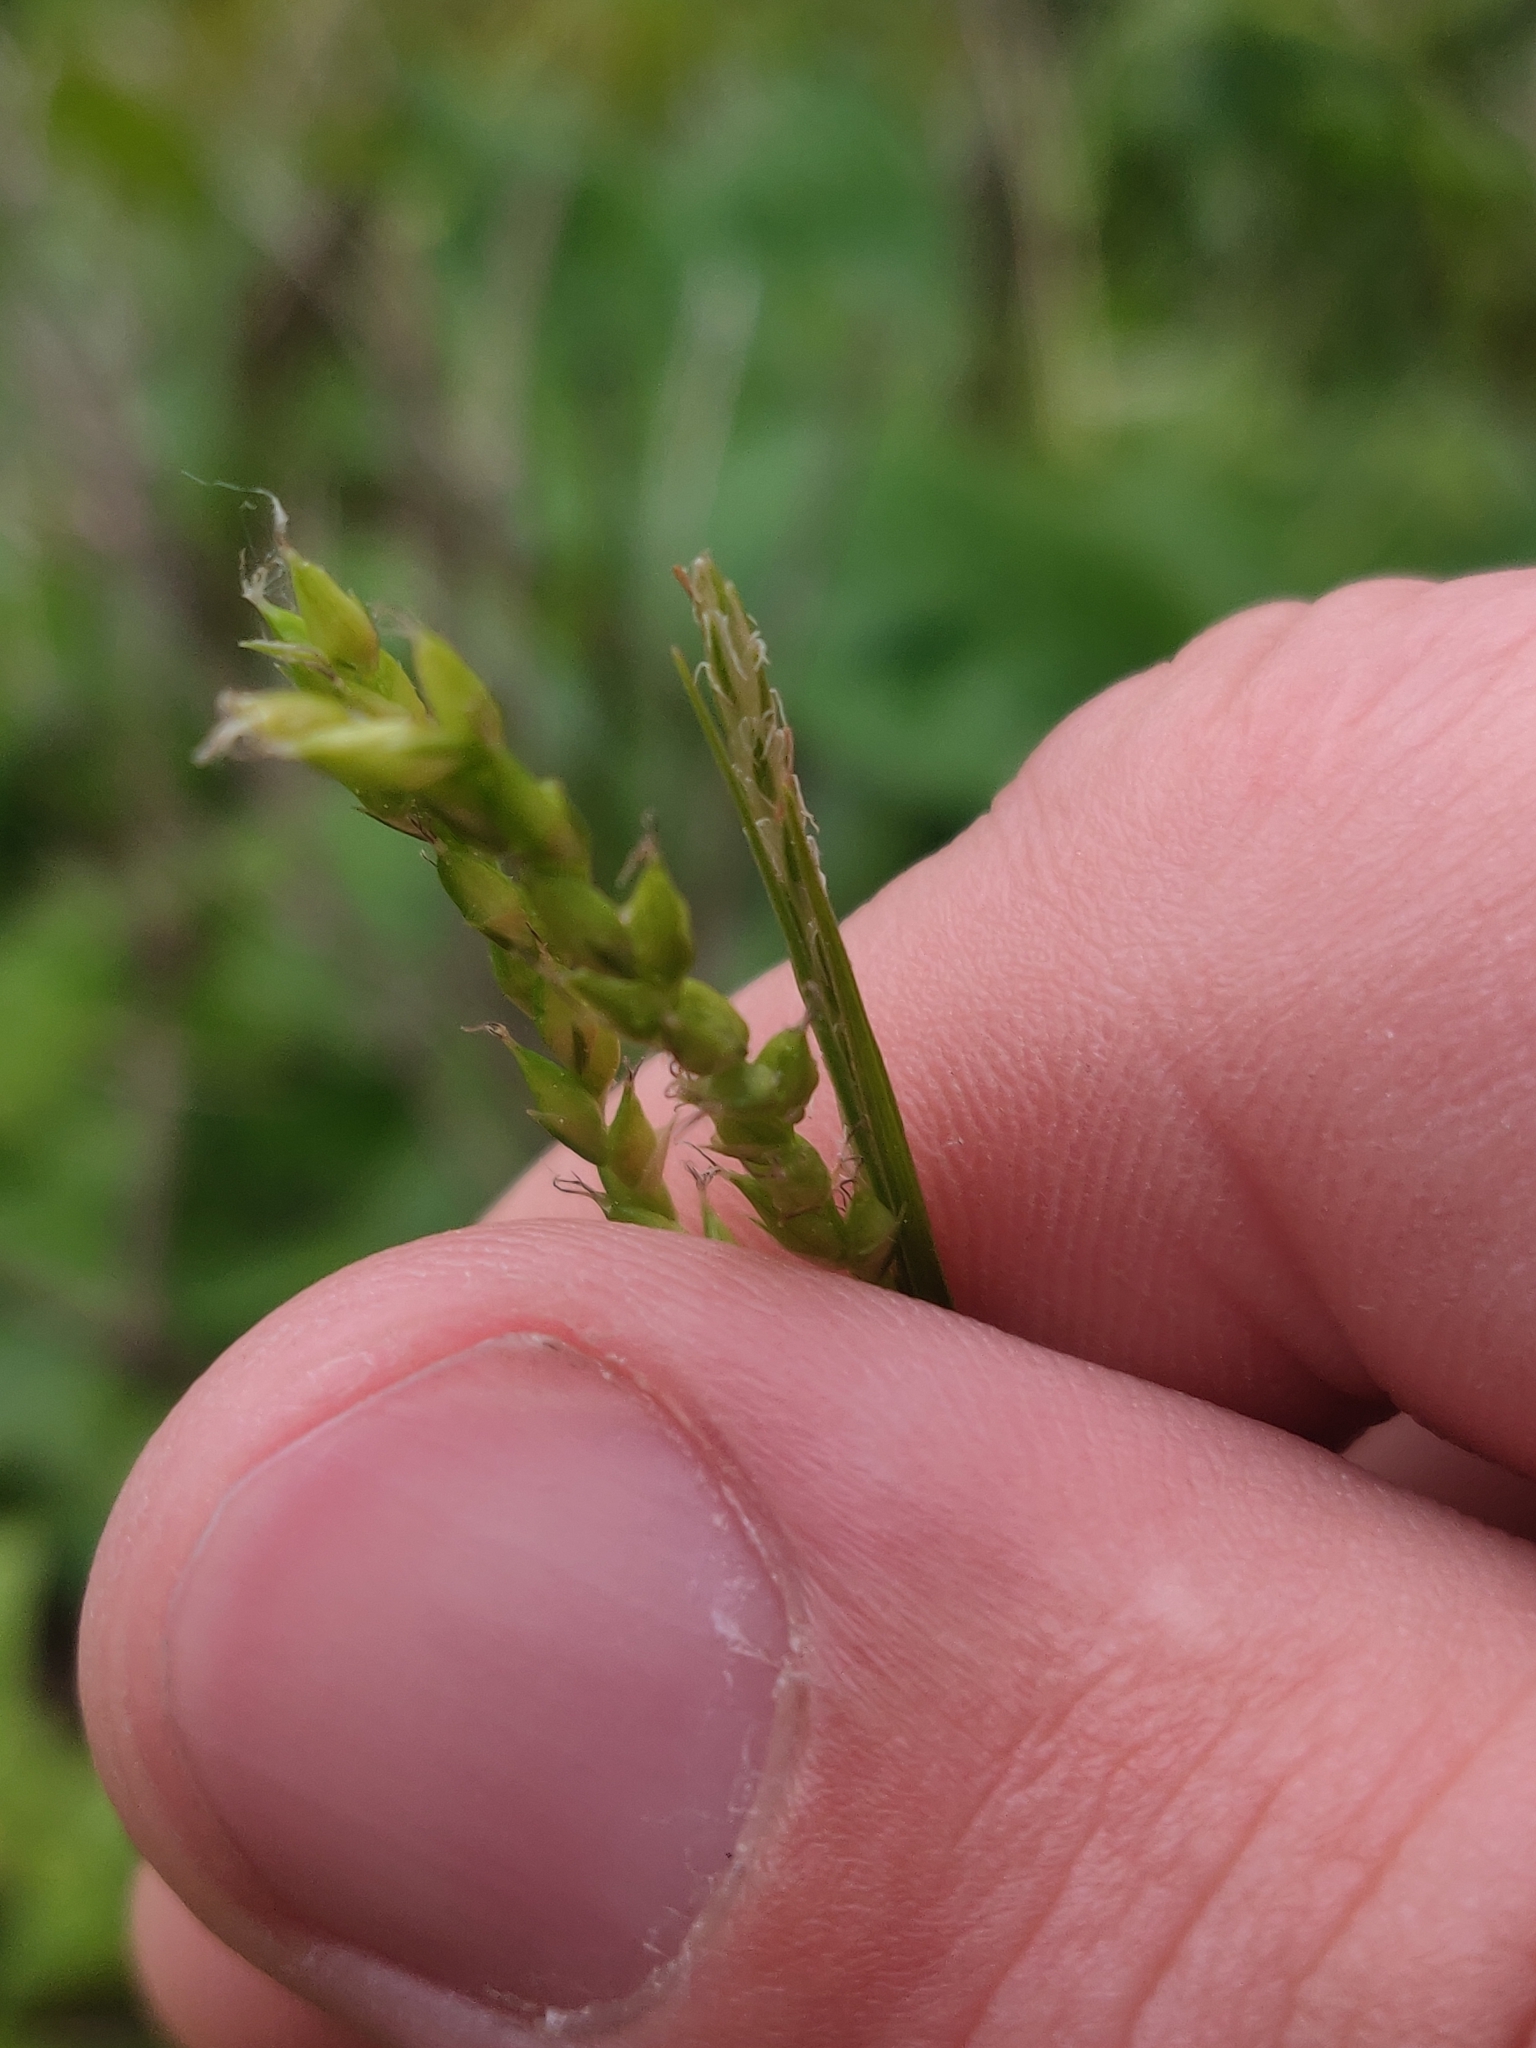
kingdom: Plantae
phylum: Tracheophyta
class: Liliopsida
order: Poales
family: Cyperaceae
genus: Carex
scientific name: Carex arctata
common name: Black sedge
